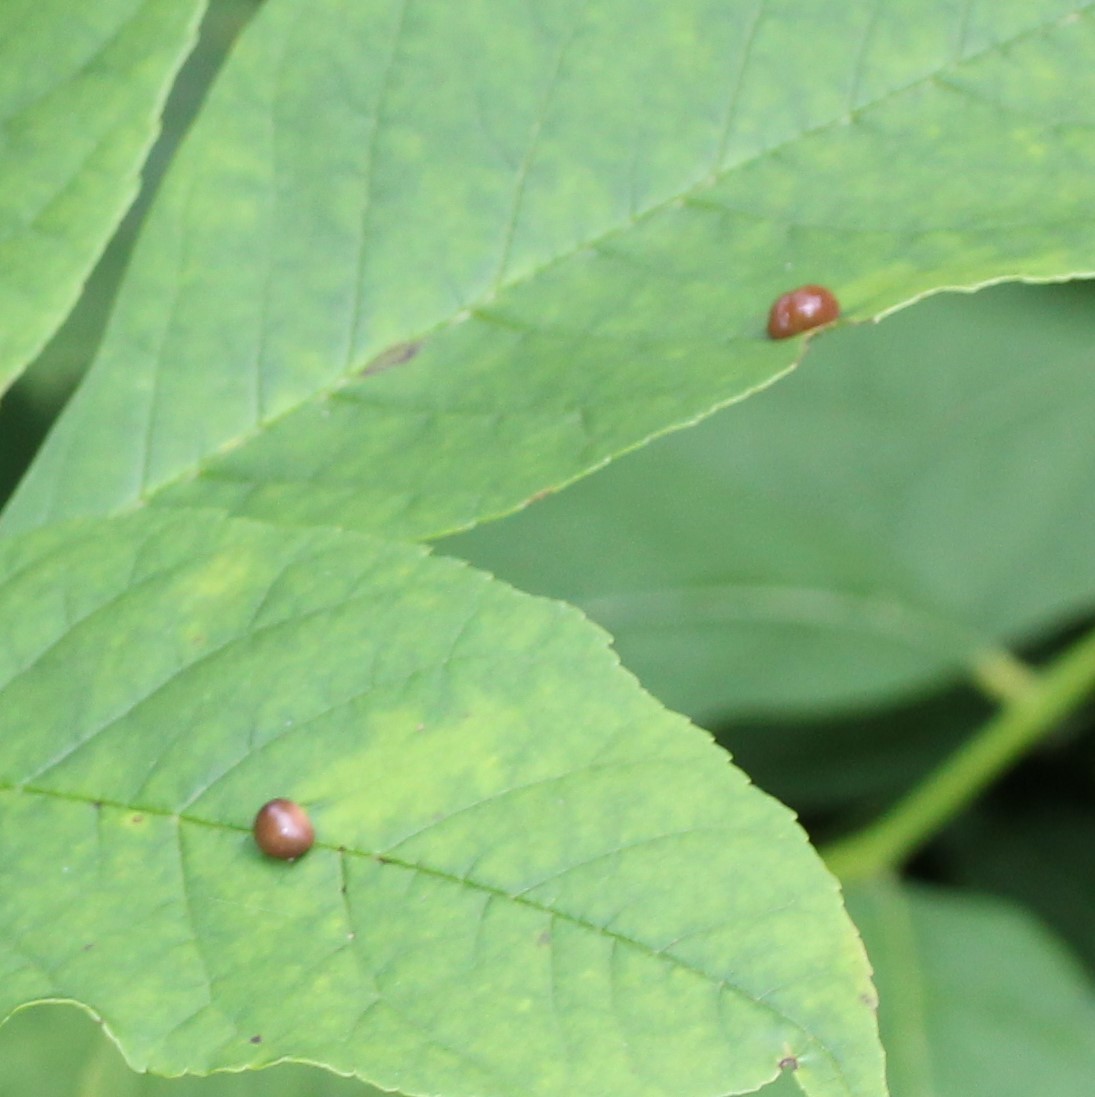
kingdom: Animalia
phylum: Arthropoda
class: Insecta
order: Diptera
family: Cecidomyiidae
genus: Dasineura
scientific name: Dasineura pellex
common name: Ash bullet gall midge
